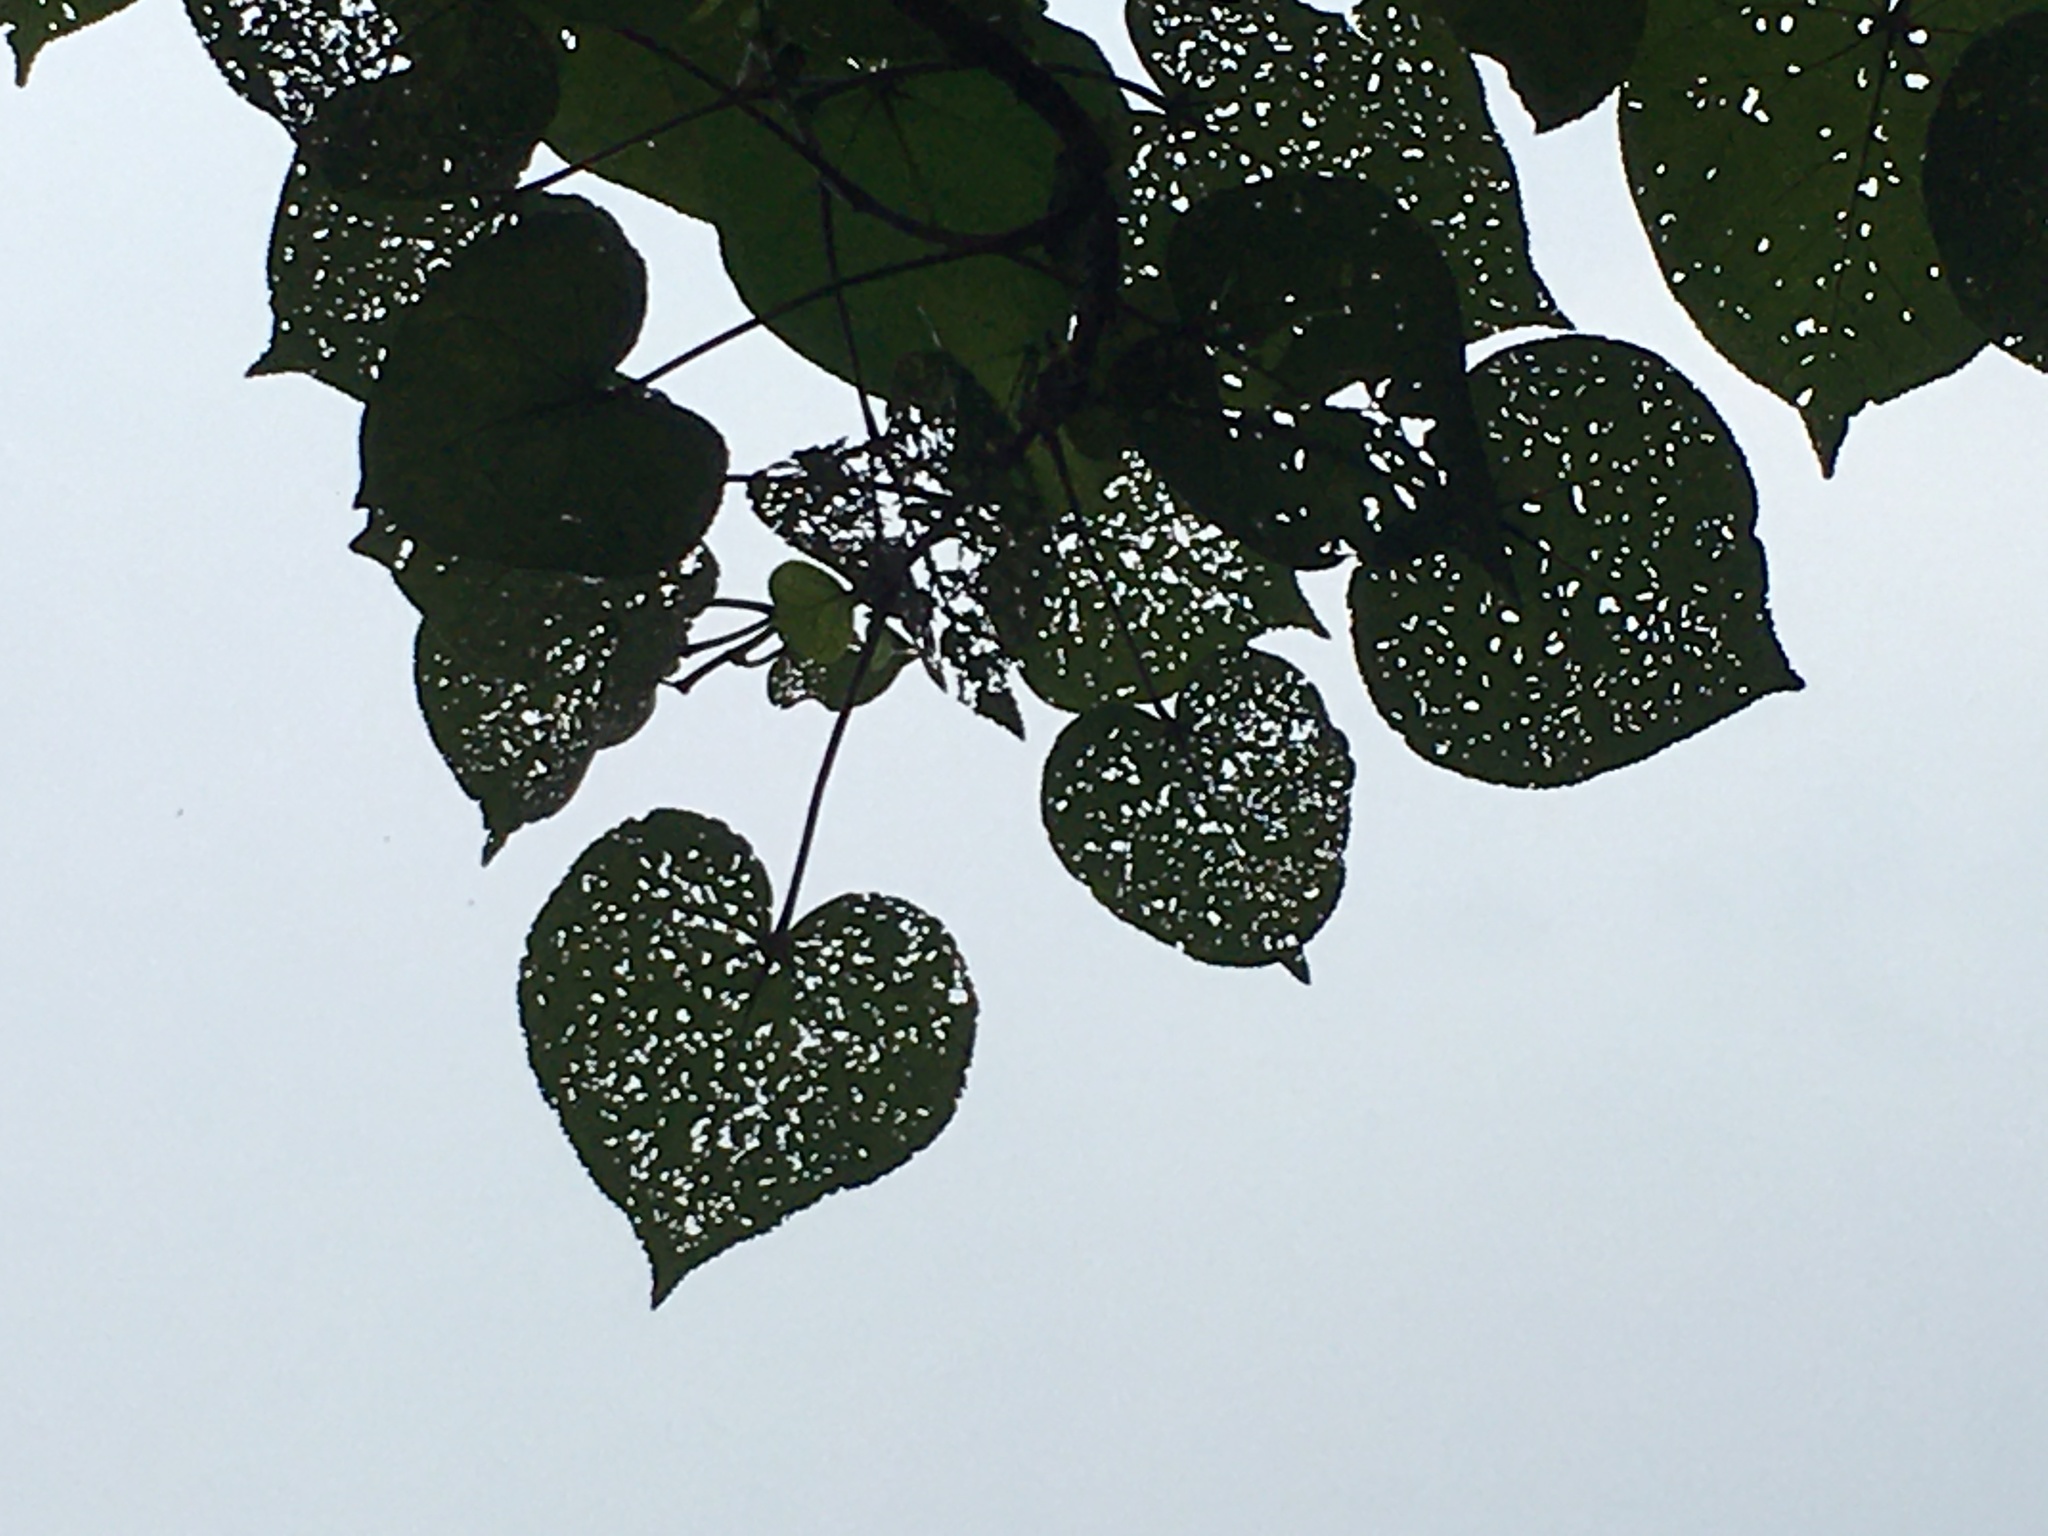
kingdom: Plantae
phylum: Tracheophyta
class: Magnoliopsida
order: Malvales
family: Malvaceae
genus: Talipariti
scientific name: Talipariti tiliaceum
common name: Sea hibiscus
